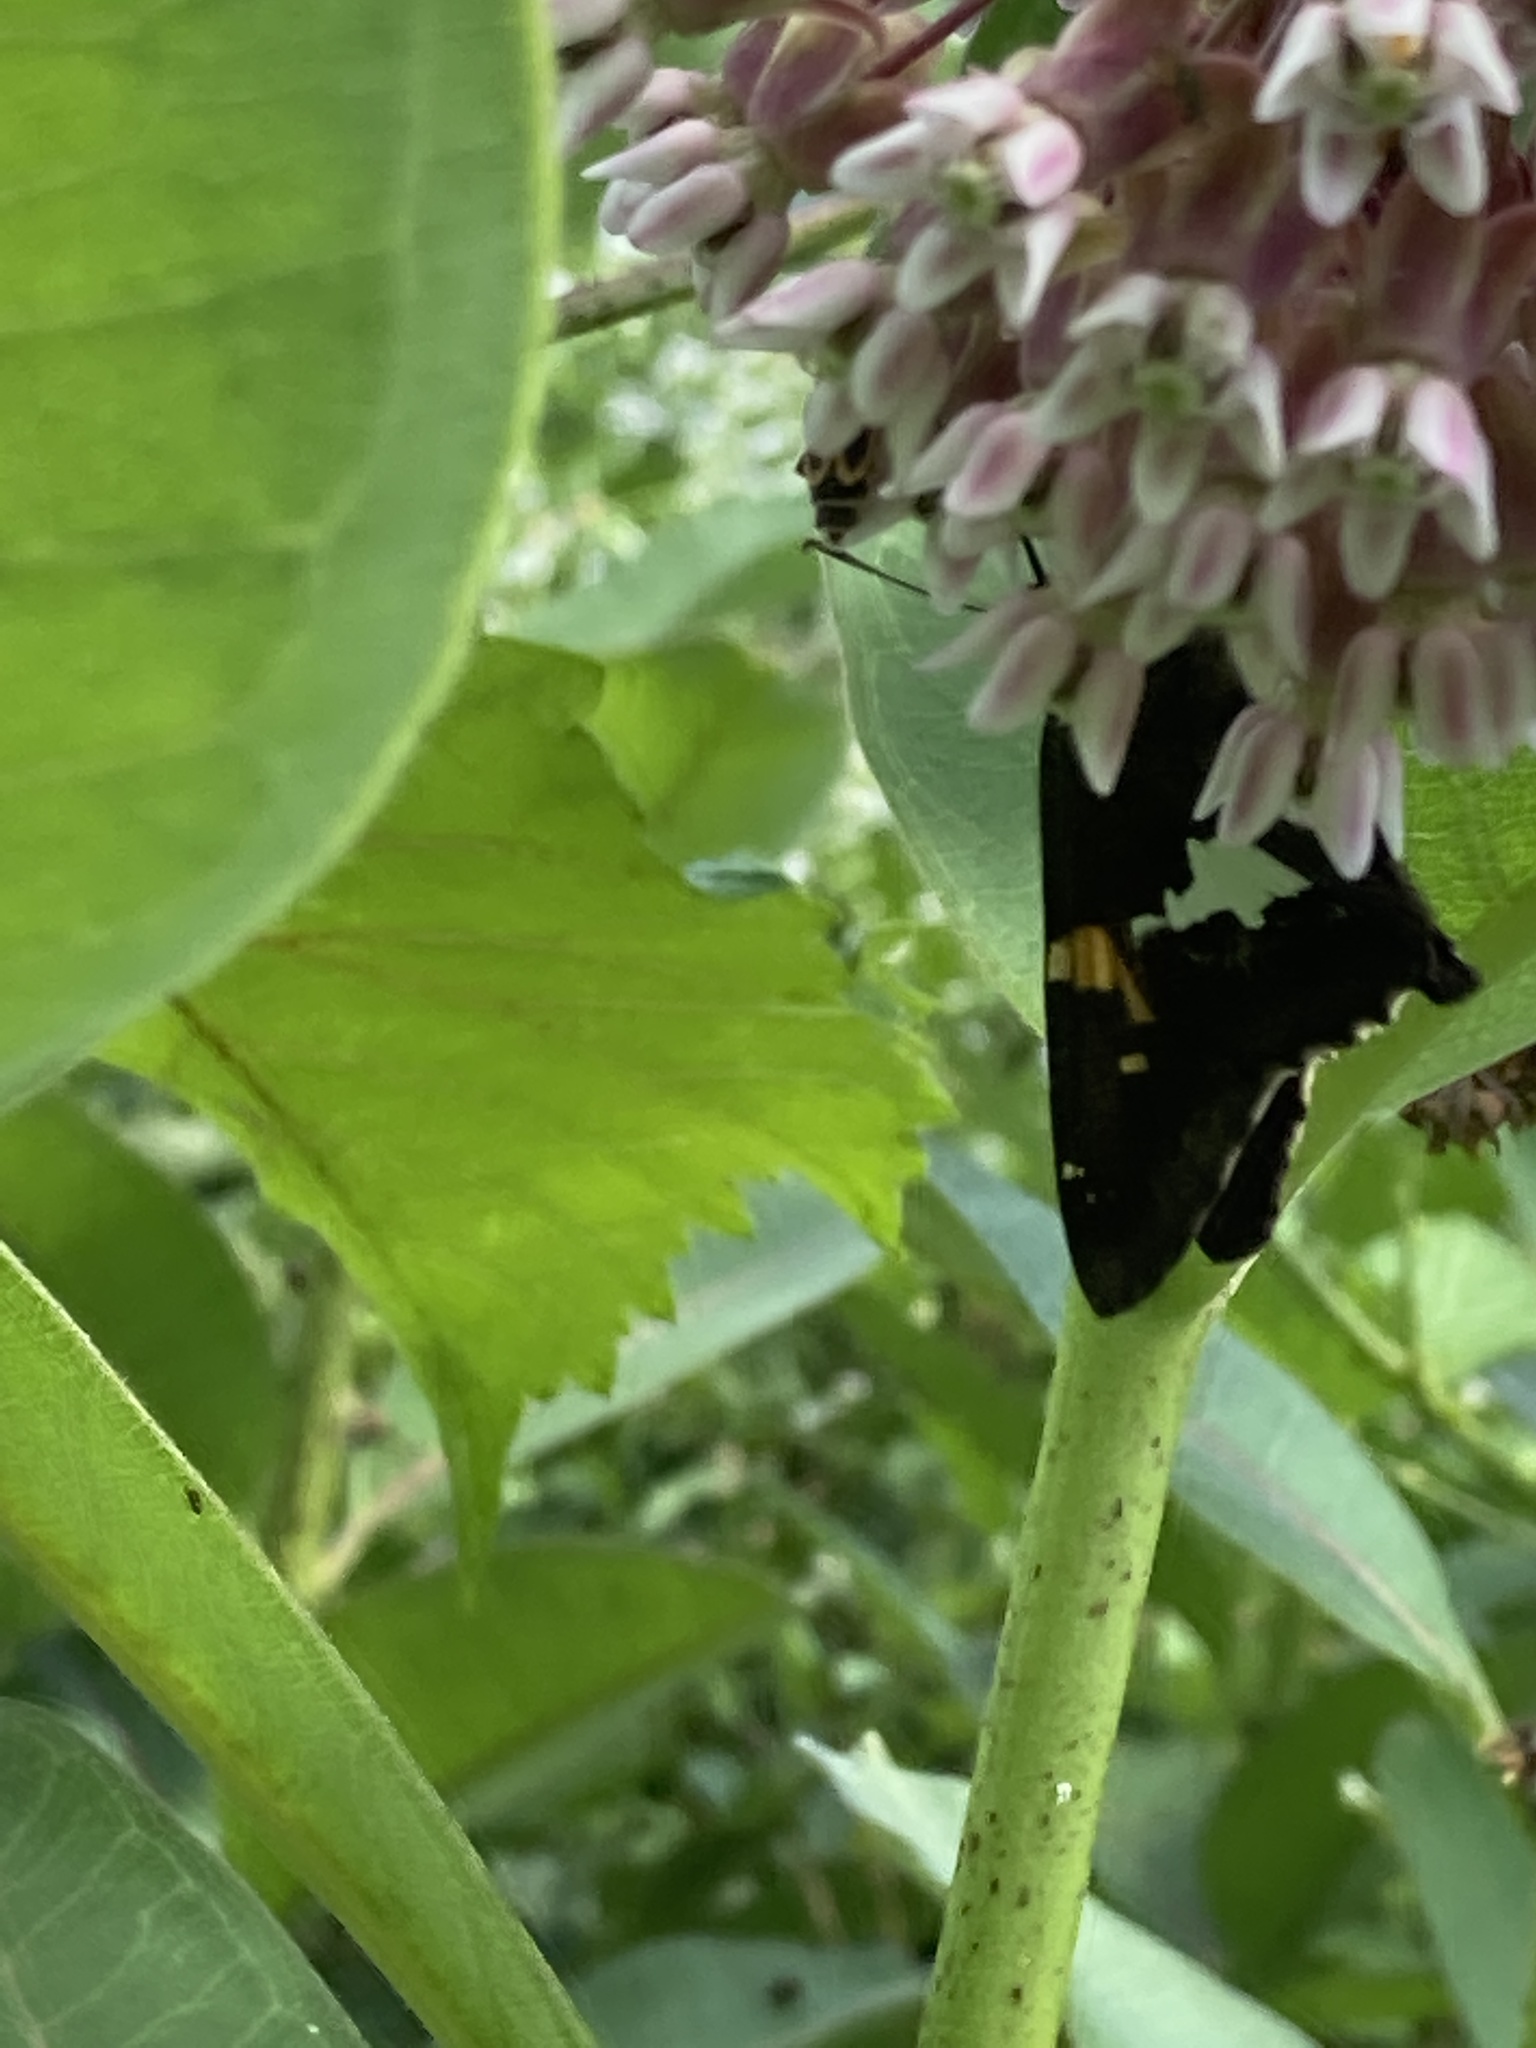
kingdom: Animalia
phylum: Arthropoda
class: Insecta
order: Lepidoptera
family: Hesperiidae
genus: Epargyreus
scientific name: Epargyreus clarus
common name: Silver-spotted skipper
